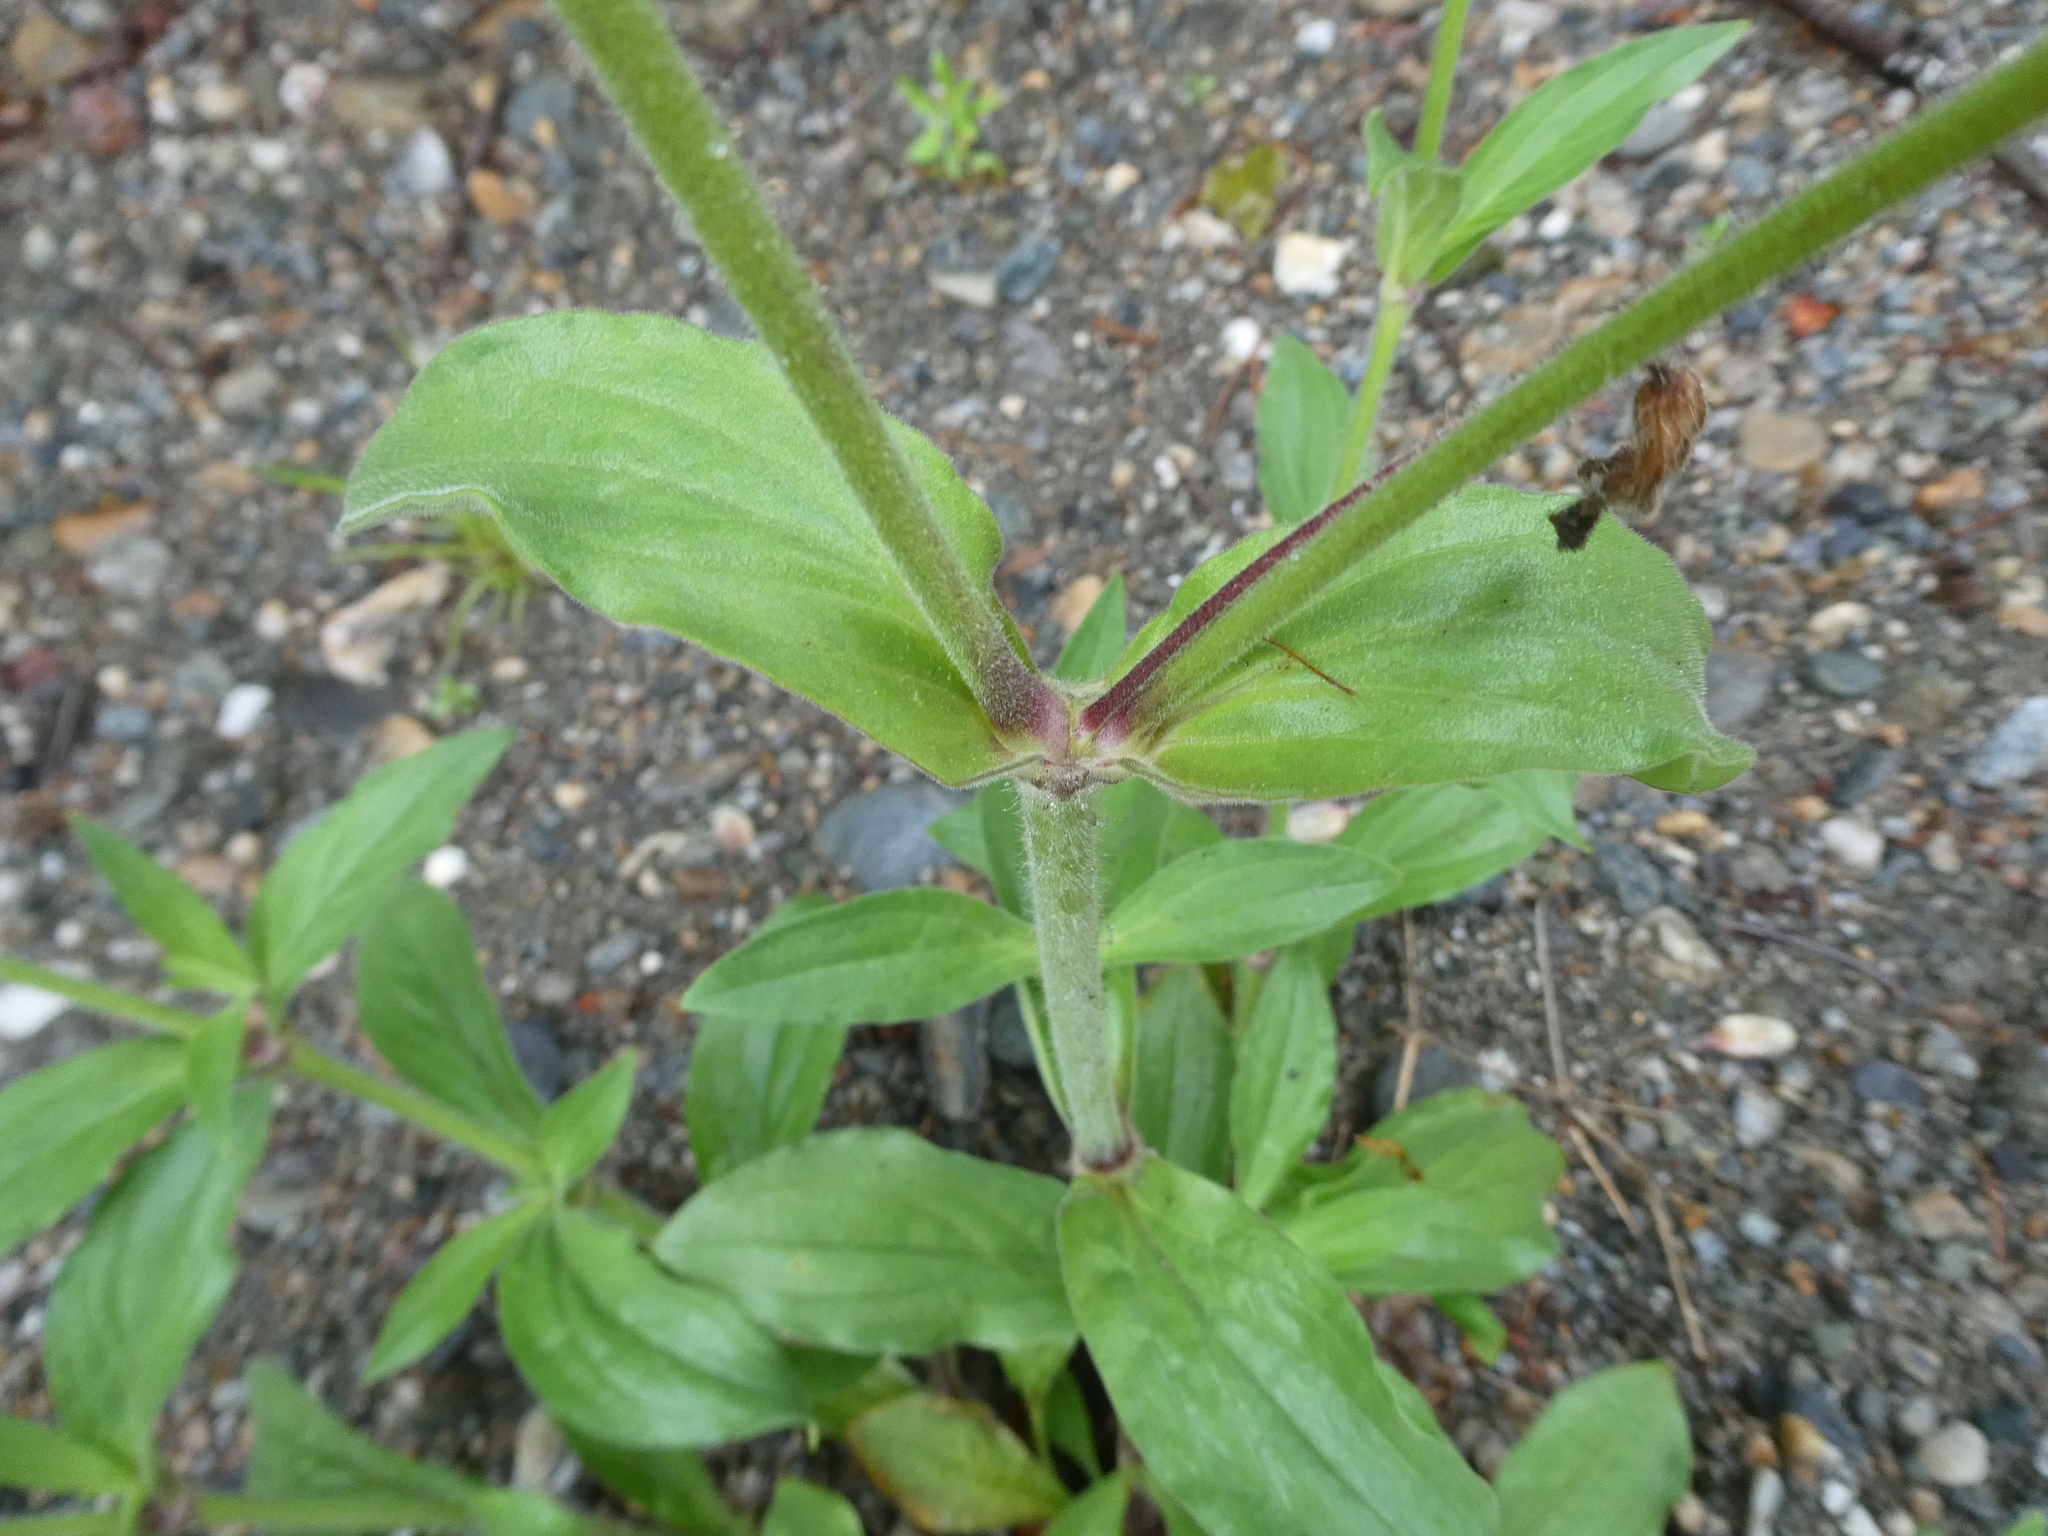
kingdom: Plantae
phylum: Tracheophyta
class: Magnoliopsida
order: Caryophyllales
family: Caryophyllaceae
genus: Silene
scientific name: Silene latifolia
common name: White campion
